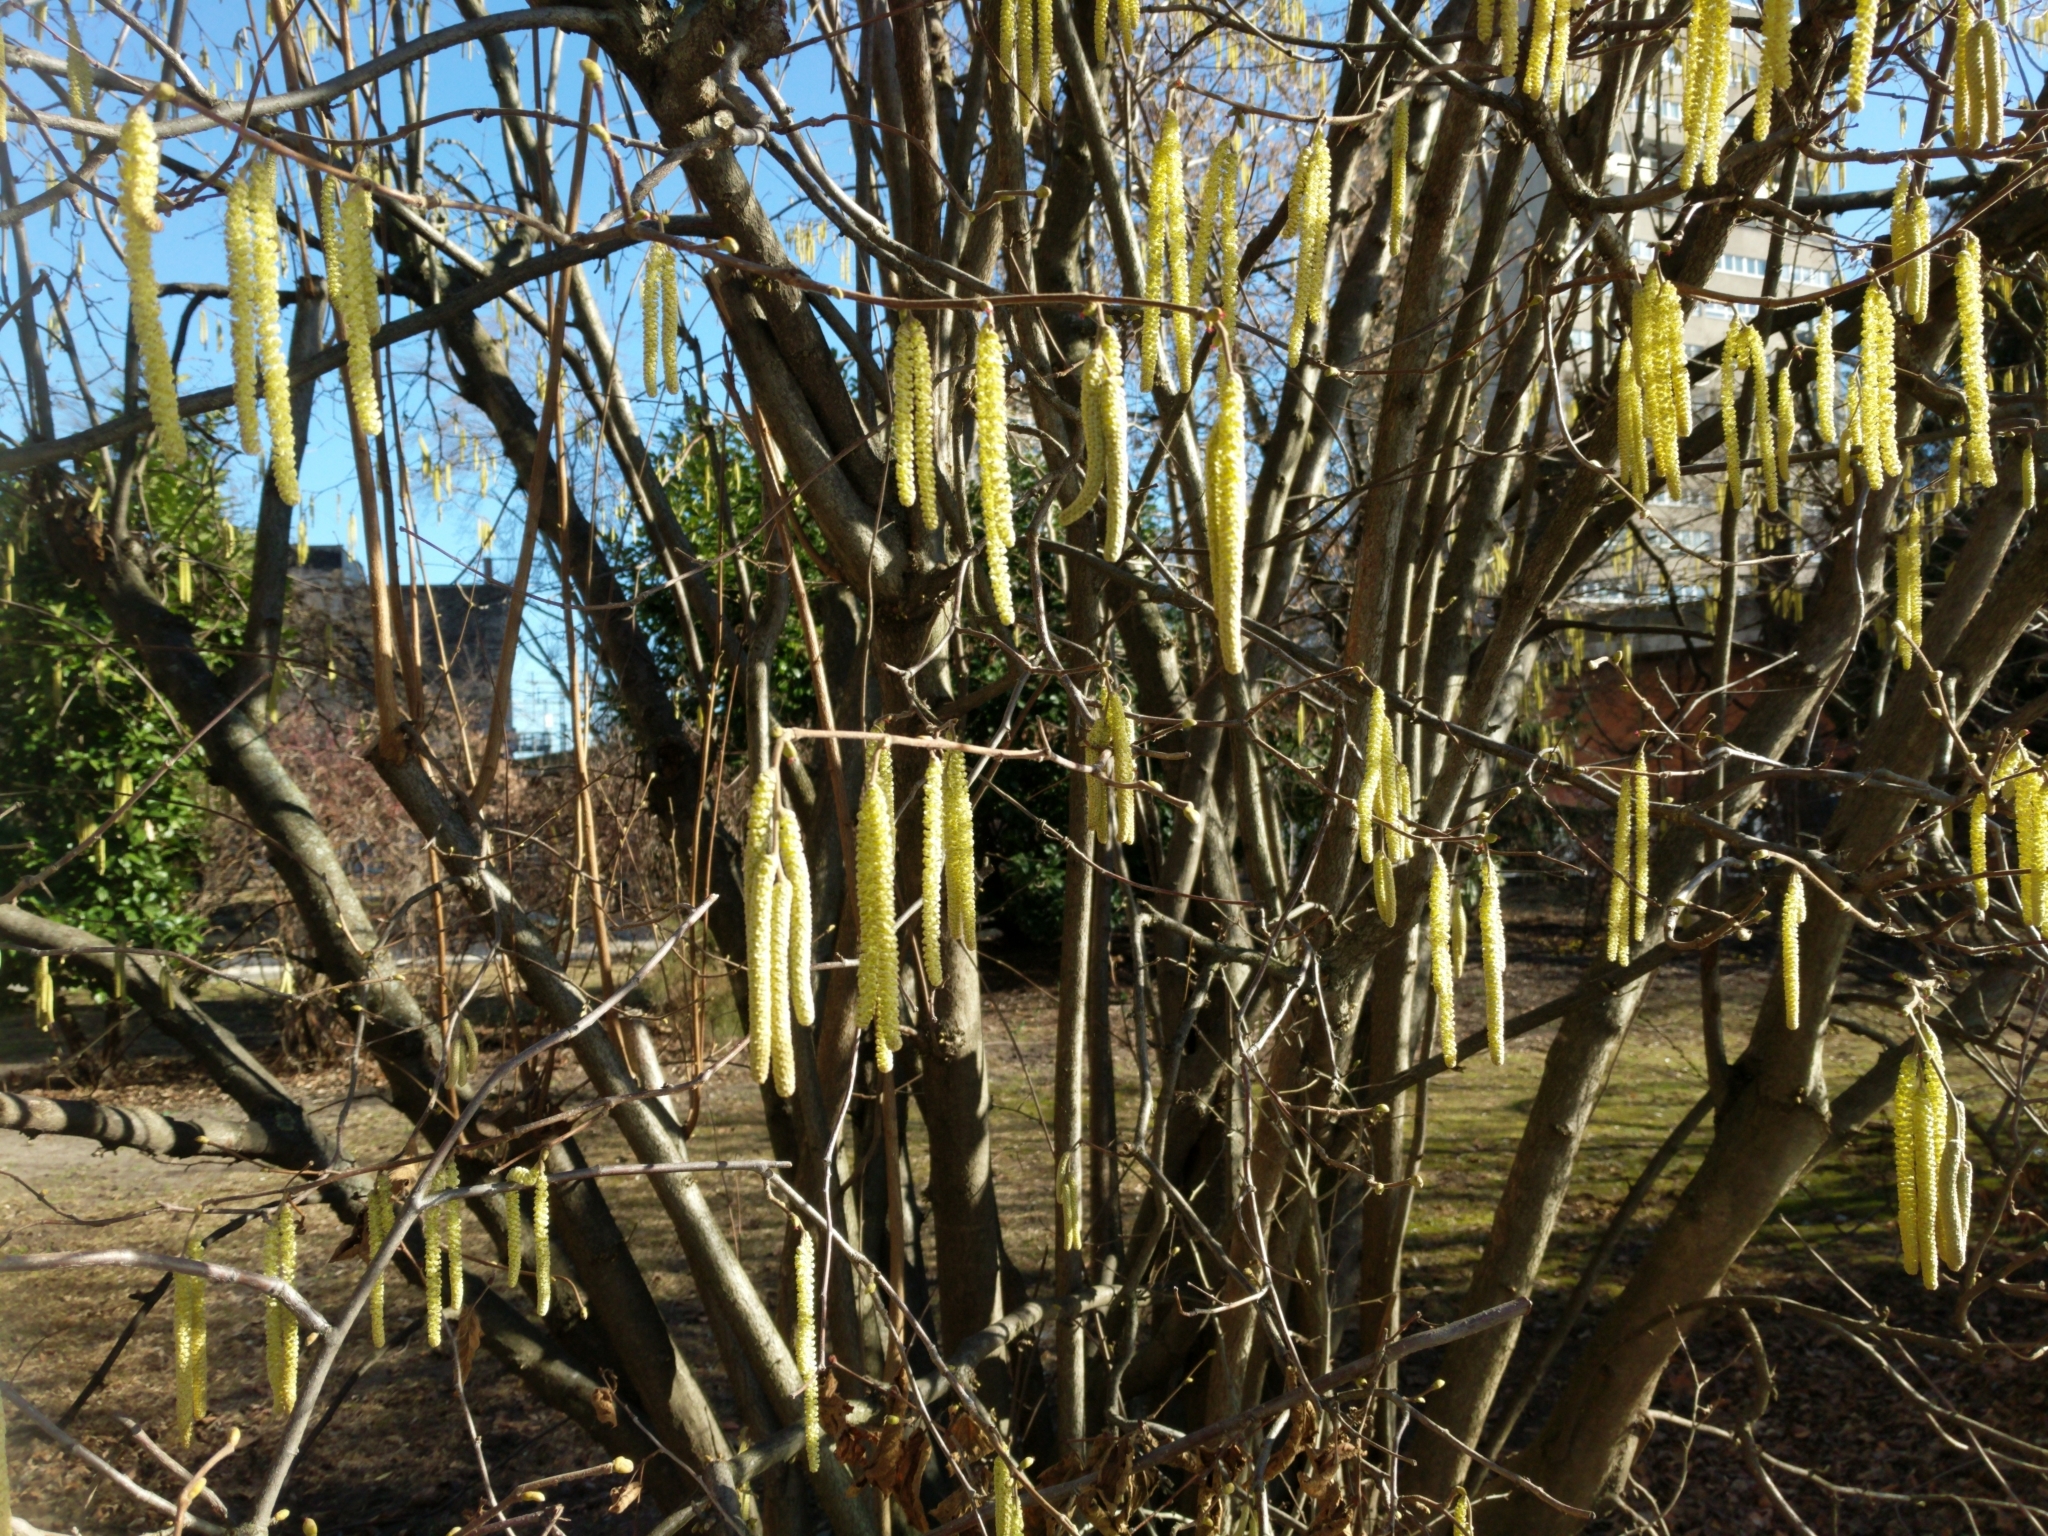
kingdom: Plantae
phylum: Tracheophyta
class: Magnoliopsida
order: Fagales
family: Betulaceae
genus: Corylus
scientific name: Corylus avellana
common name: European hazel
